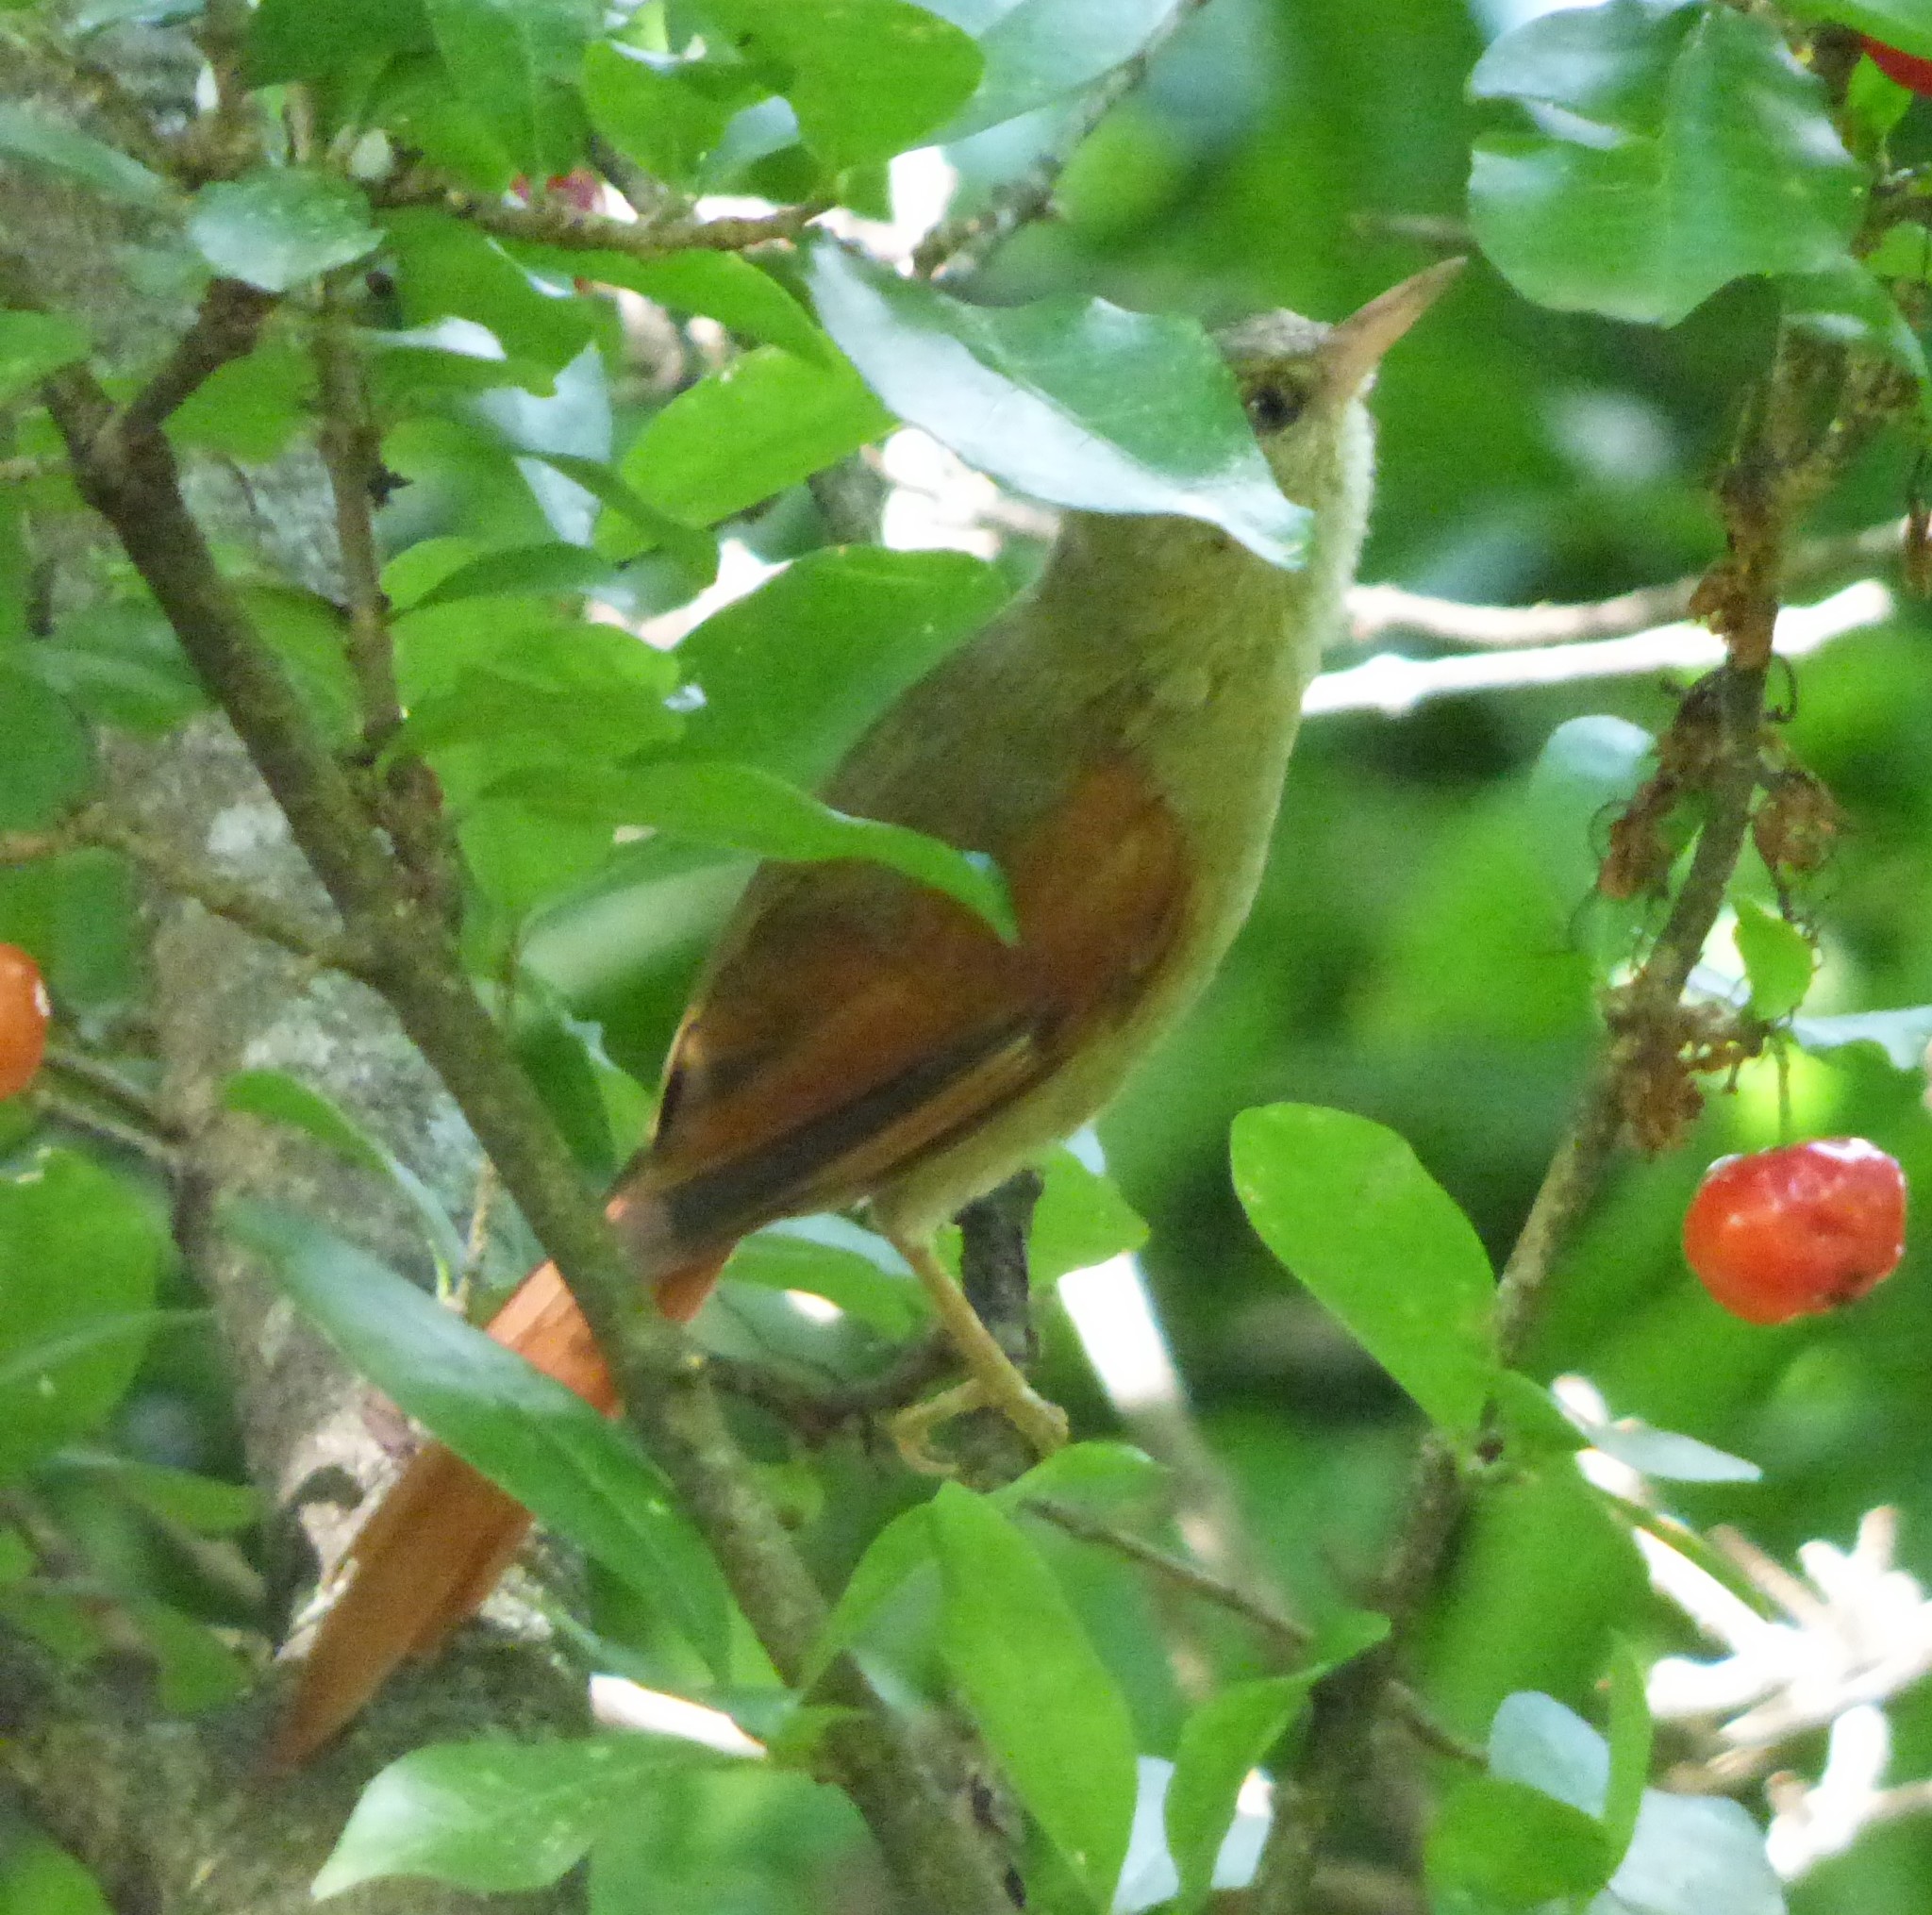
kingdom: Animalia
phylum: Chordata
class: Aves
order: Passeriformes
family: Furnariidae
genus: Cranioleuca
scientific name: Cranioleuca subcristata
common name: Crested spinetail
